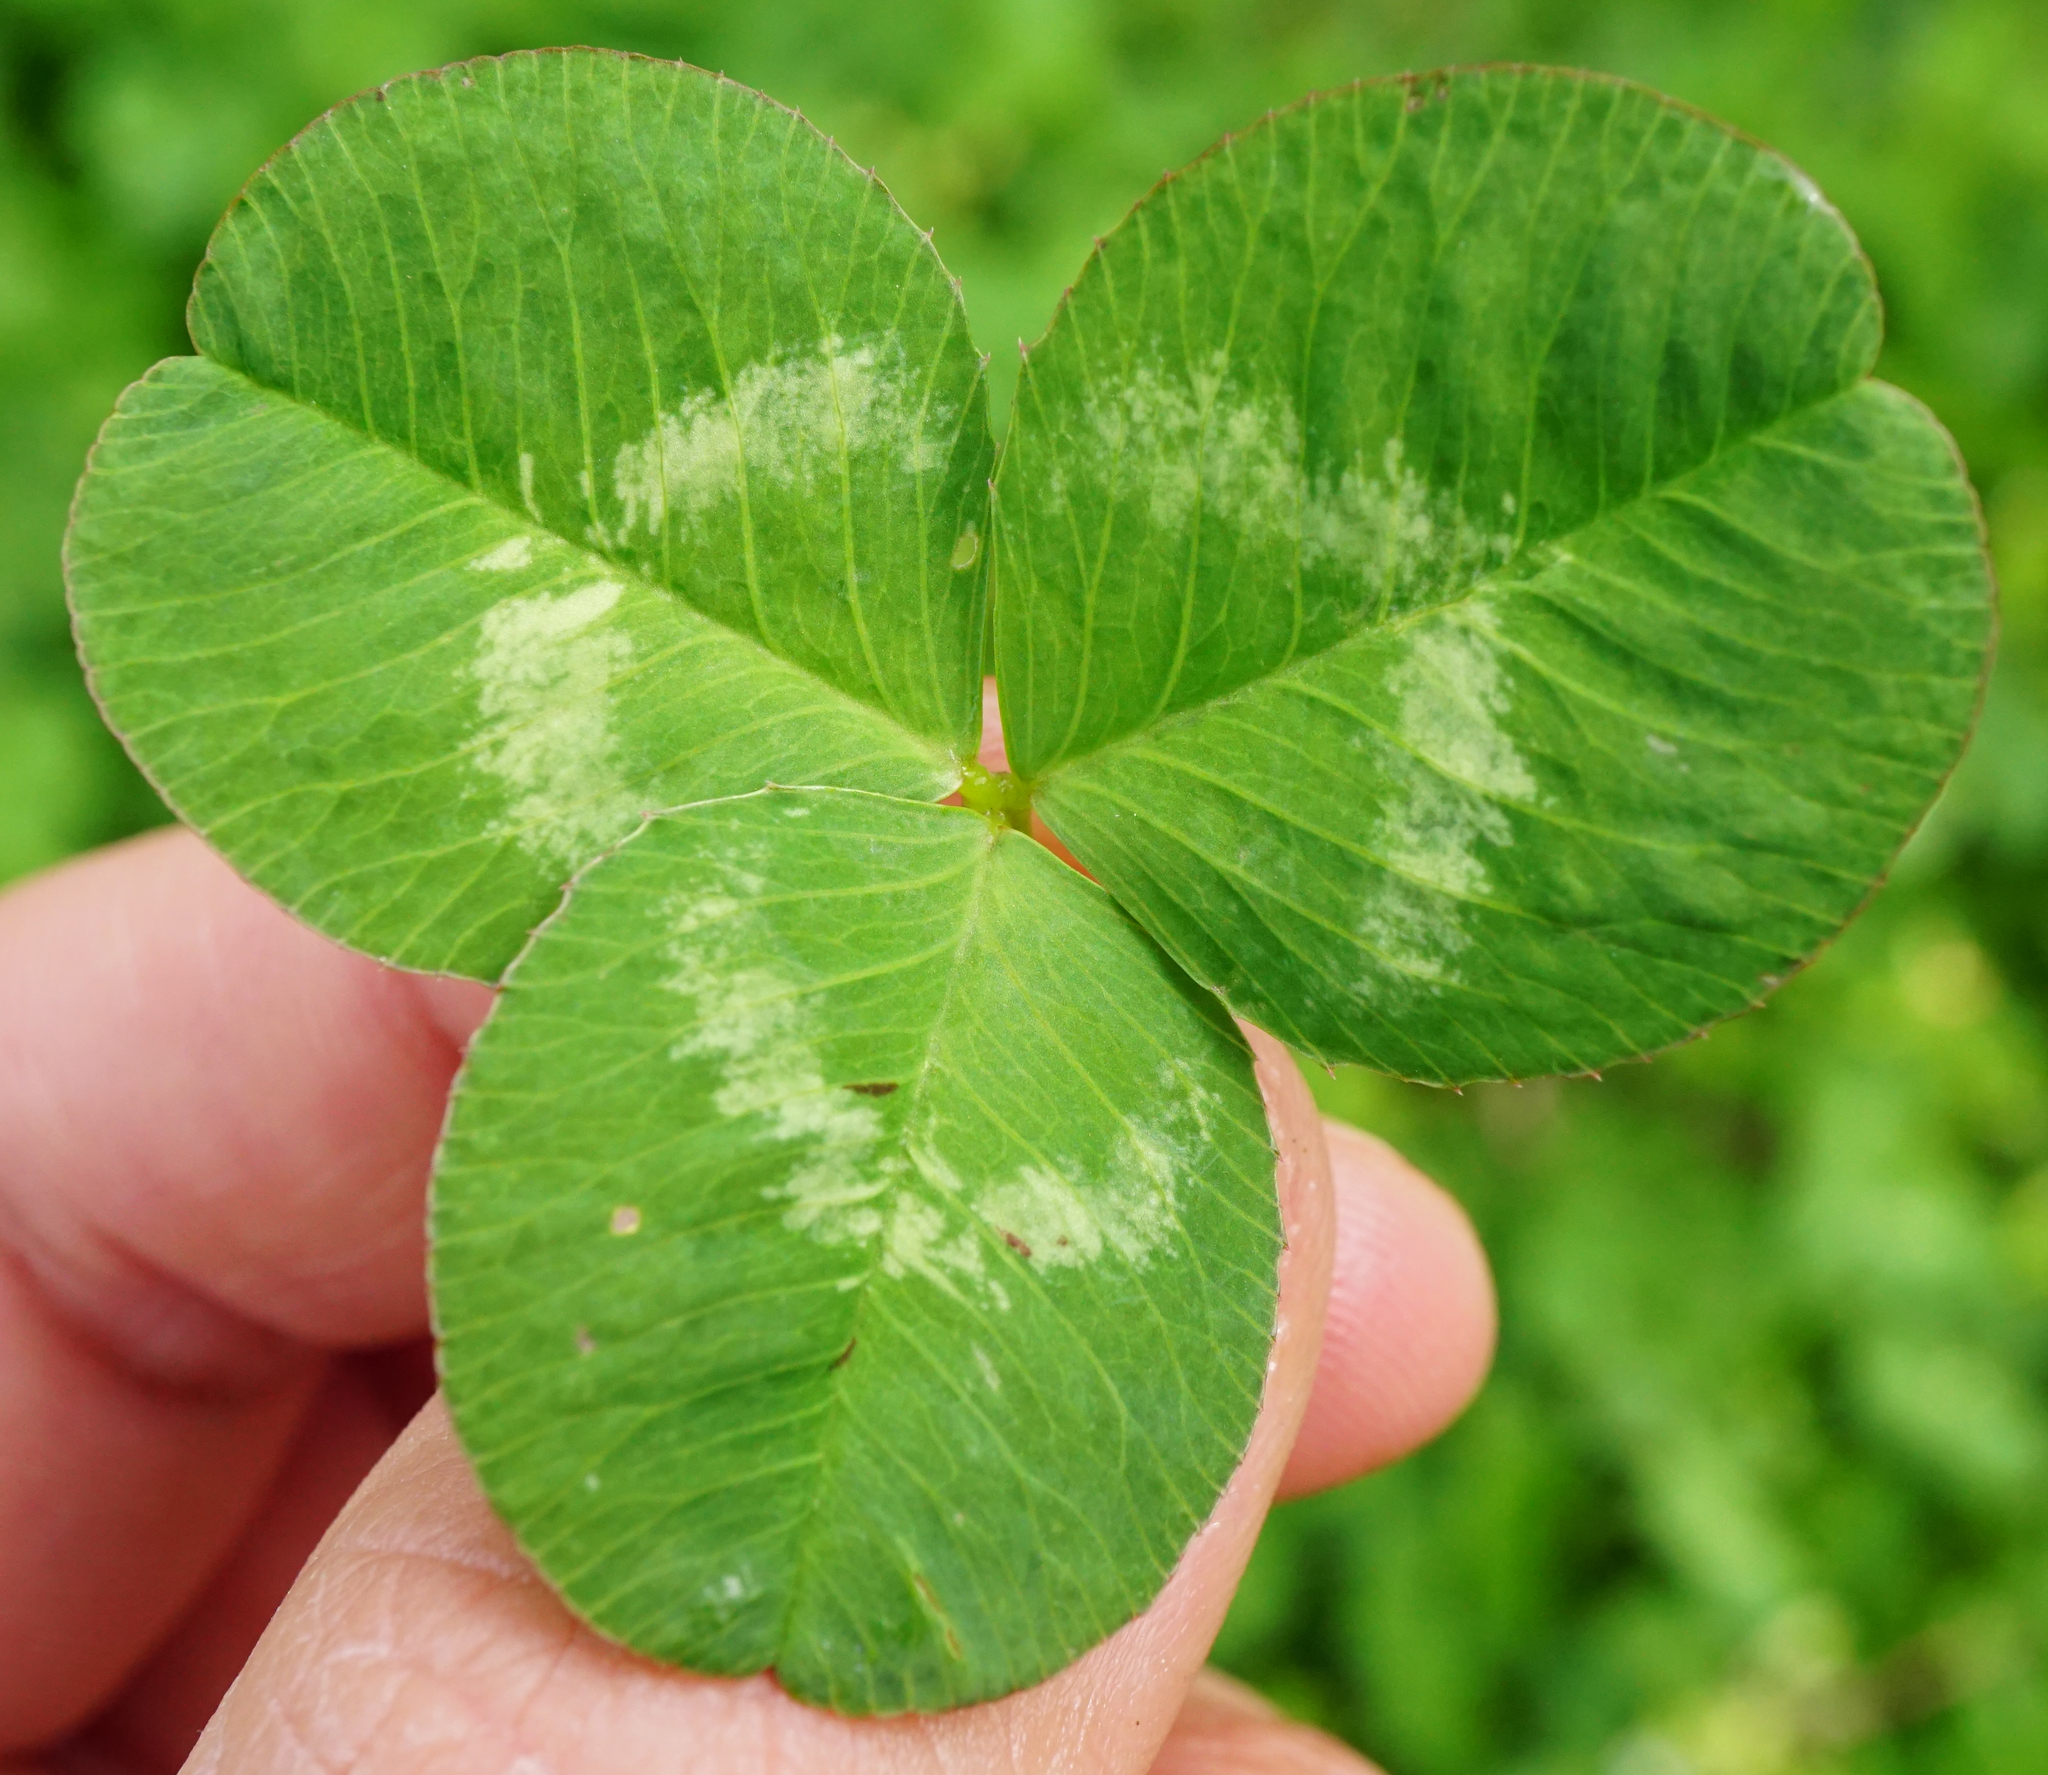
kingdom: Plantae
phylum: Tracheophyta
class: Magnoliopsida
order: Fabales
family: Fabaceae
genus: Trifolium
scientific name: Trifolium repens
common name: White clover
